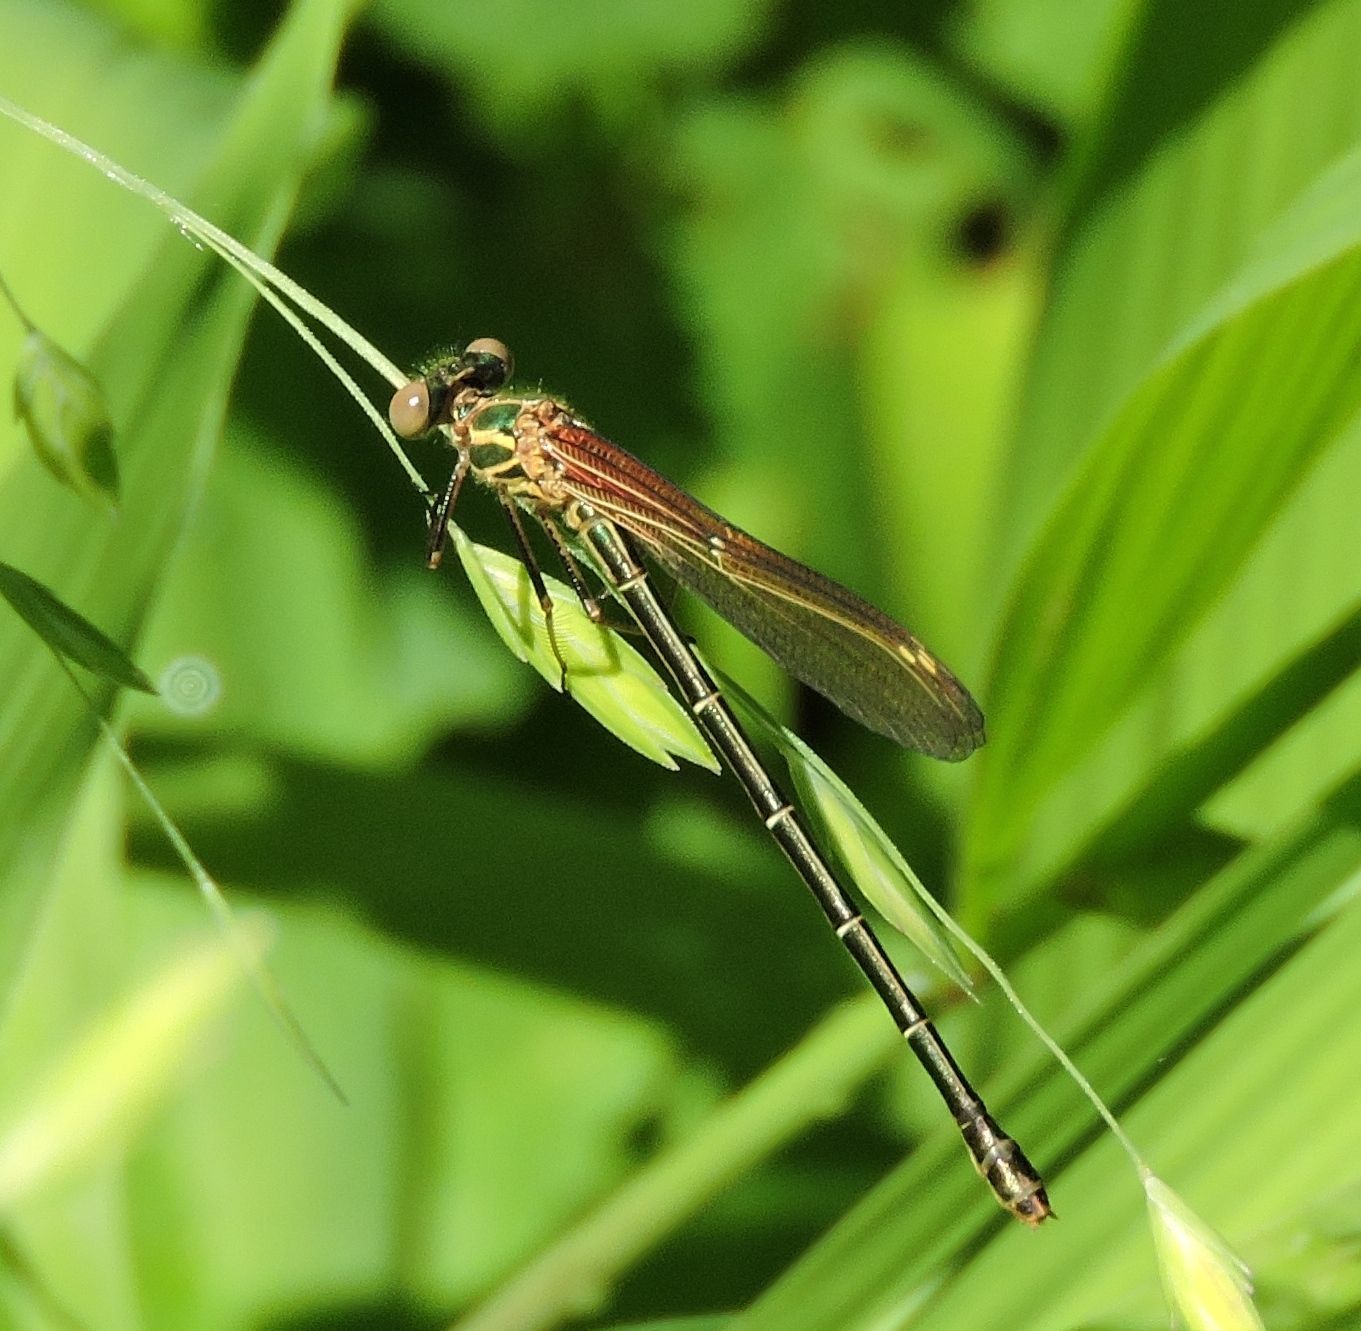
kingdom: Animalia
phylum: Arthropoda
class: Insecta
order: Odonata
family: Calopterygidae
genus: Hetaerina
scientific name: Hetaerina americana
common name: American rubyspot
